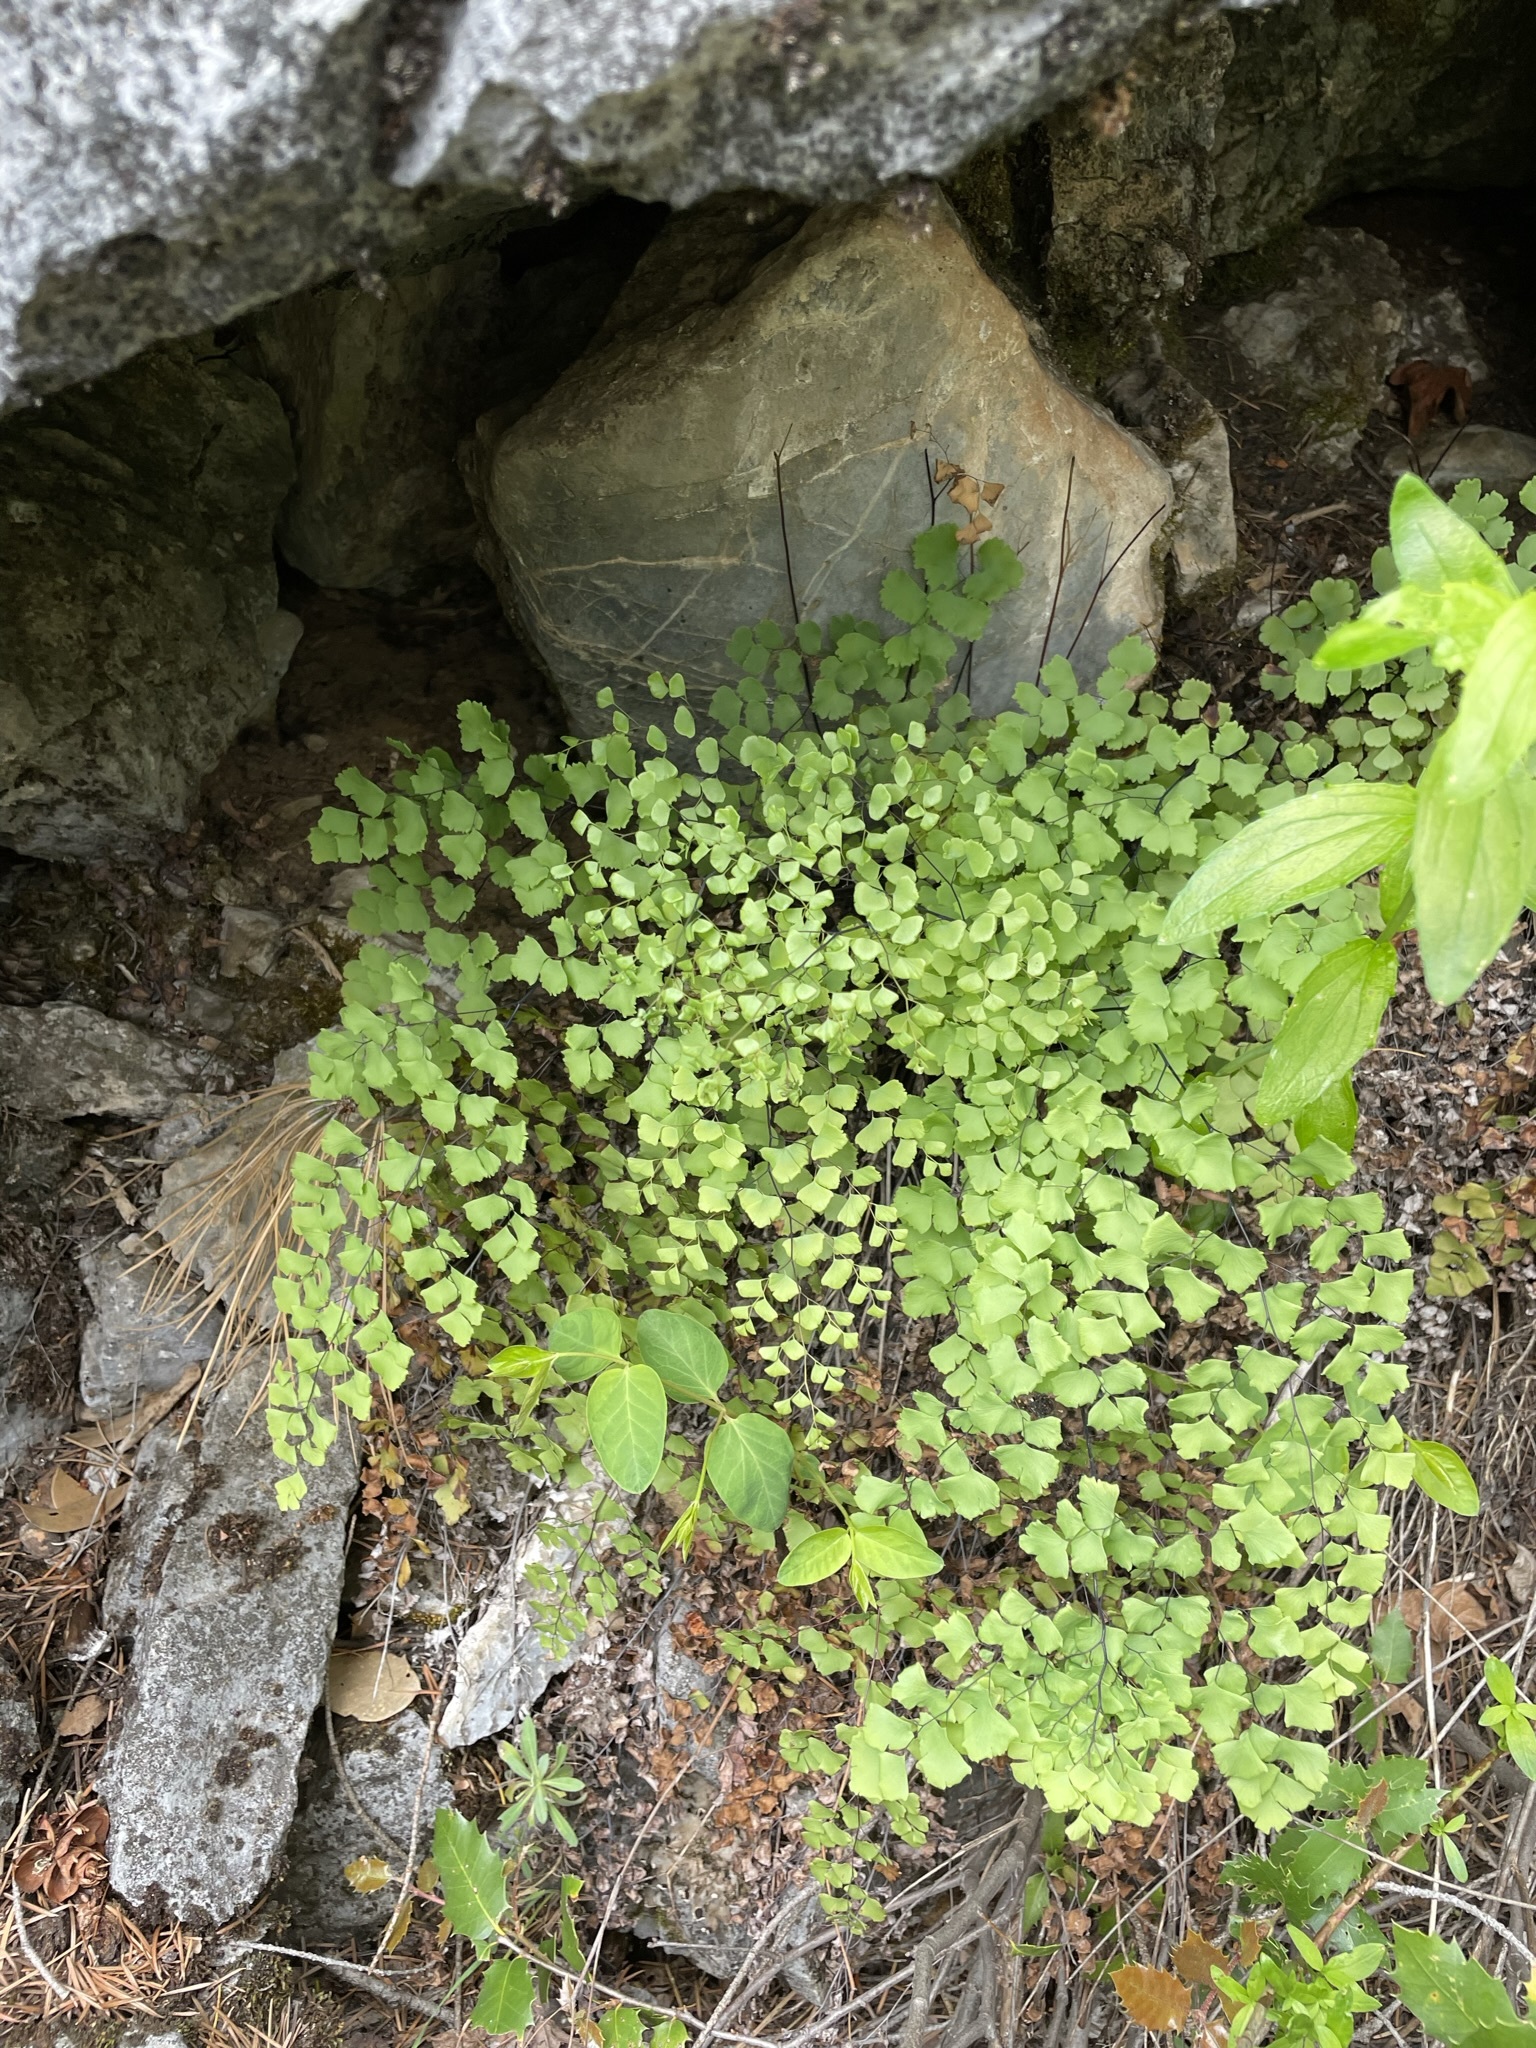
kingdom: Plantae
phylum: Tracheophyta
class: Polypodiopsida
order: Polypodiales
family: Pteridaceae
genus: Adiantum
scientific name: Adiantum shastense
